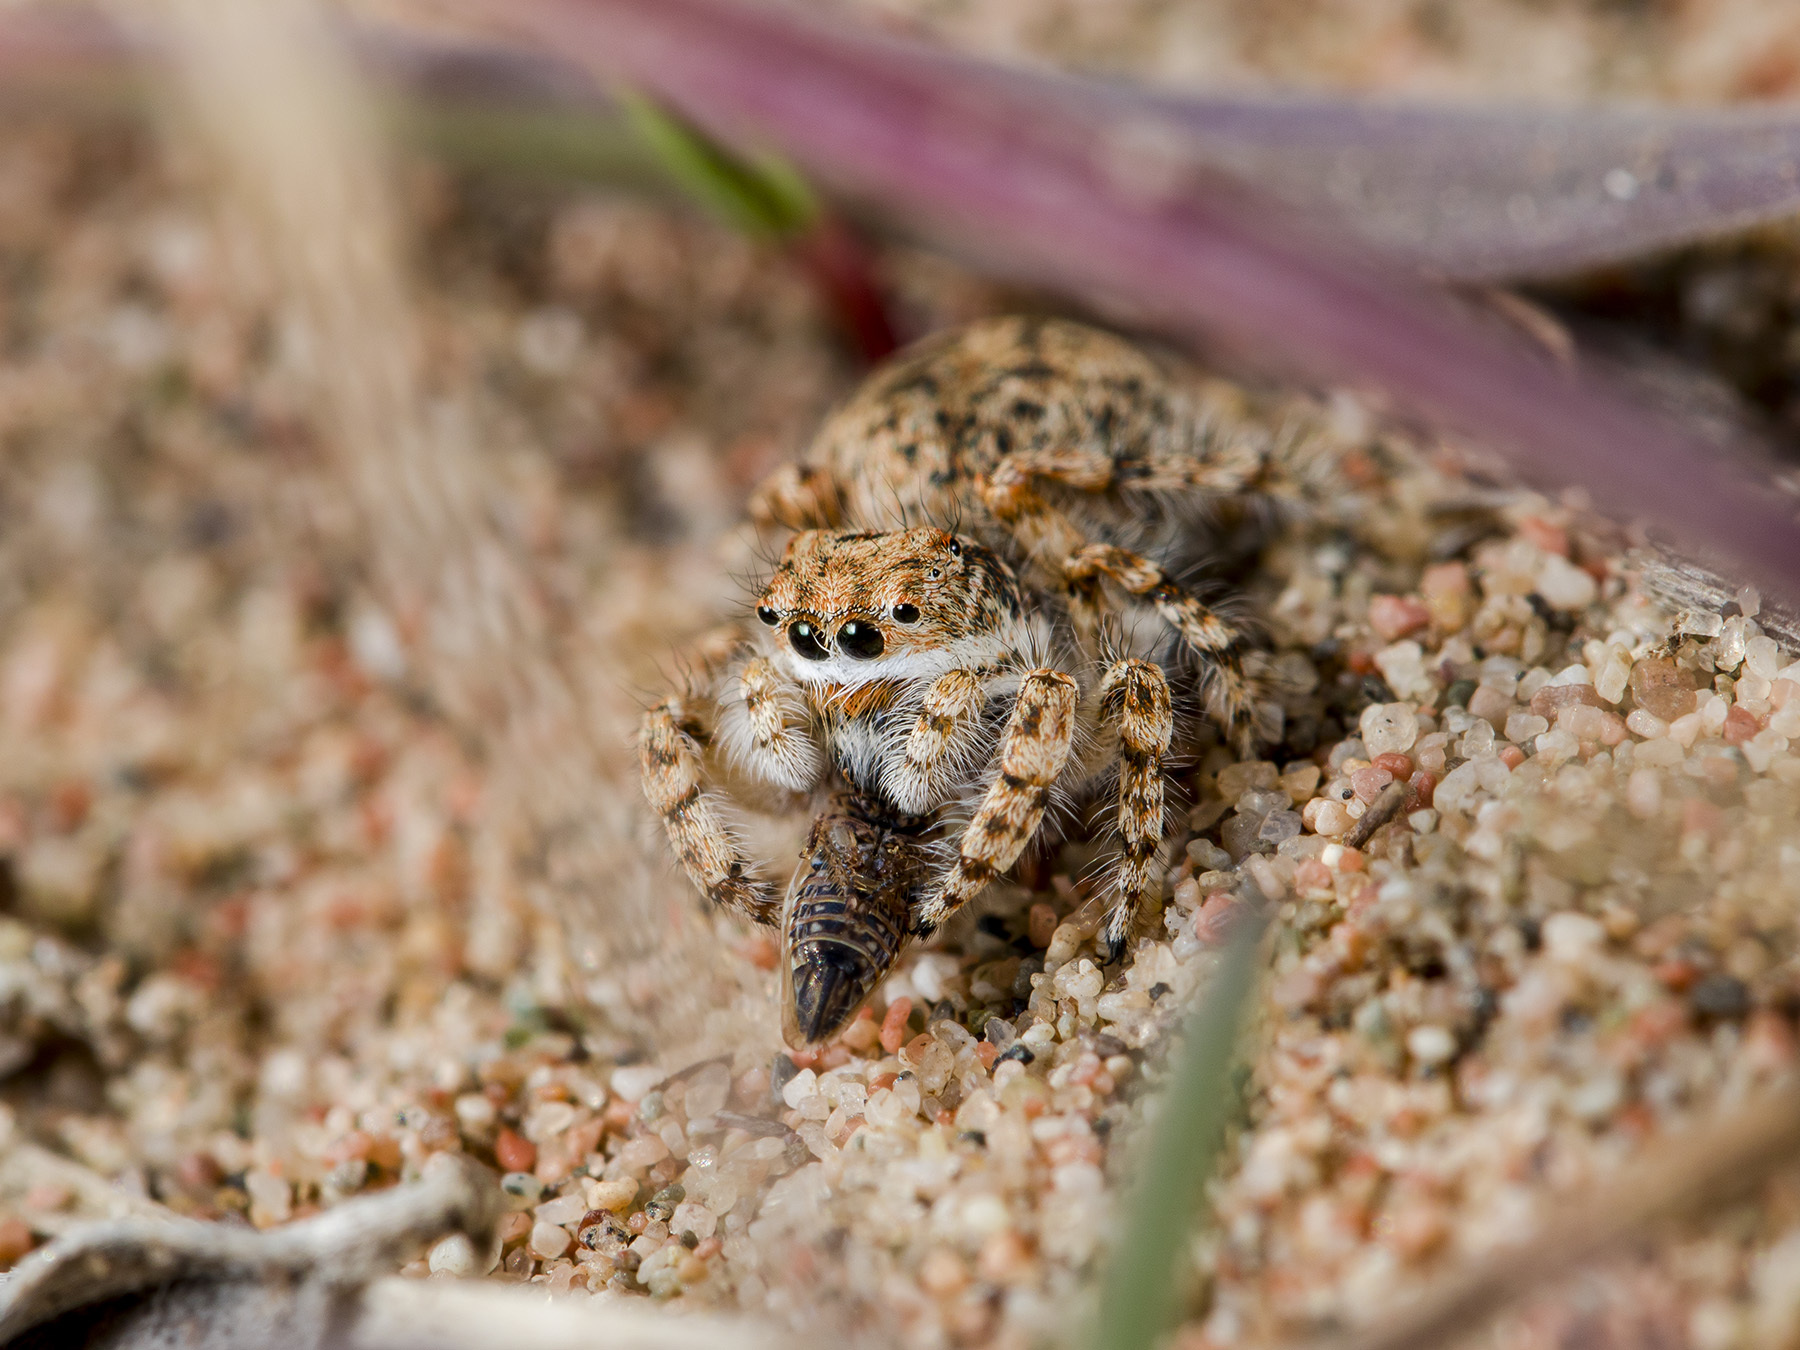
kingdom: Animalia
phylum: Arthropoda
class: Arachnida
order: Araneae
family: Salticidae
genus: Yllenus
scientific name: Yllenus uiguricus
